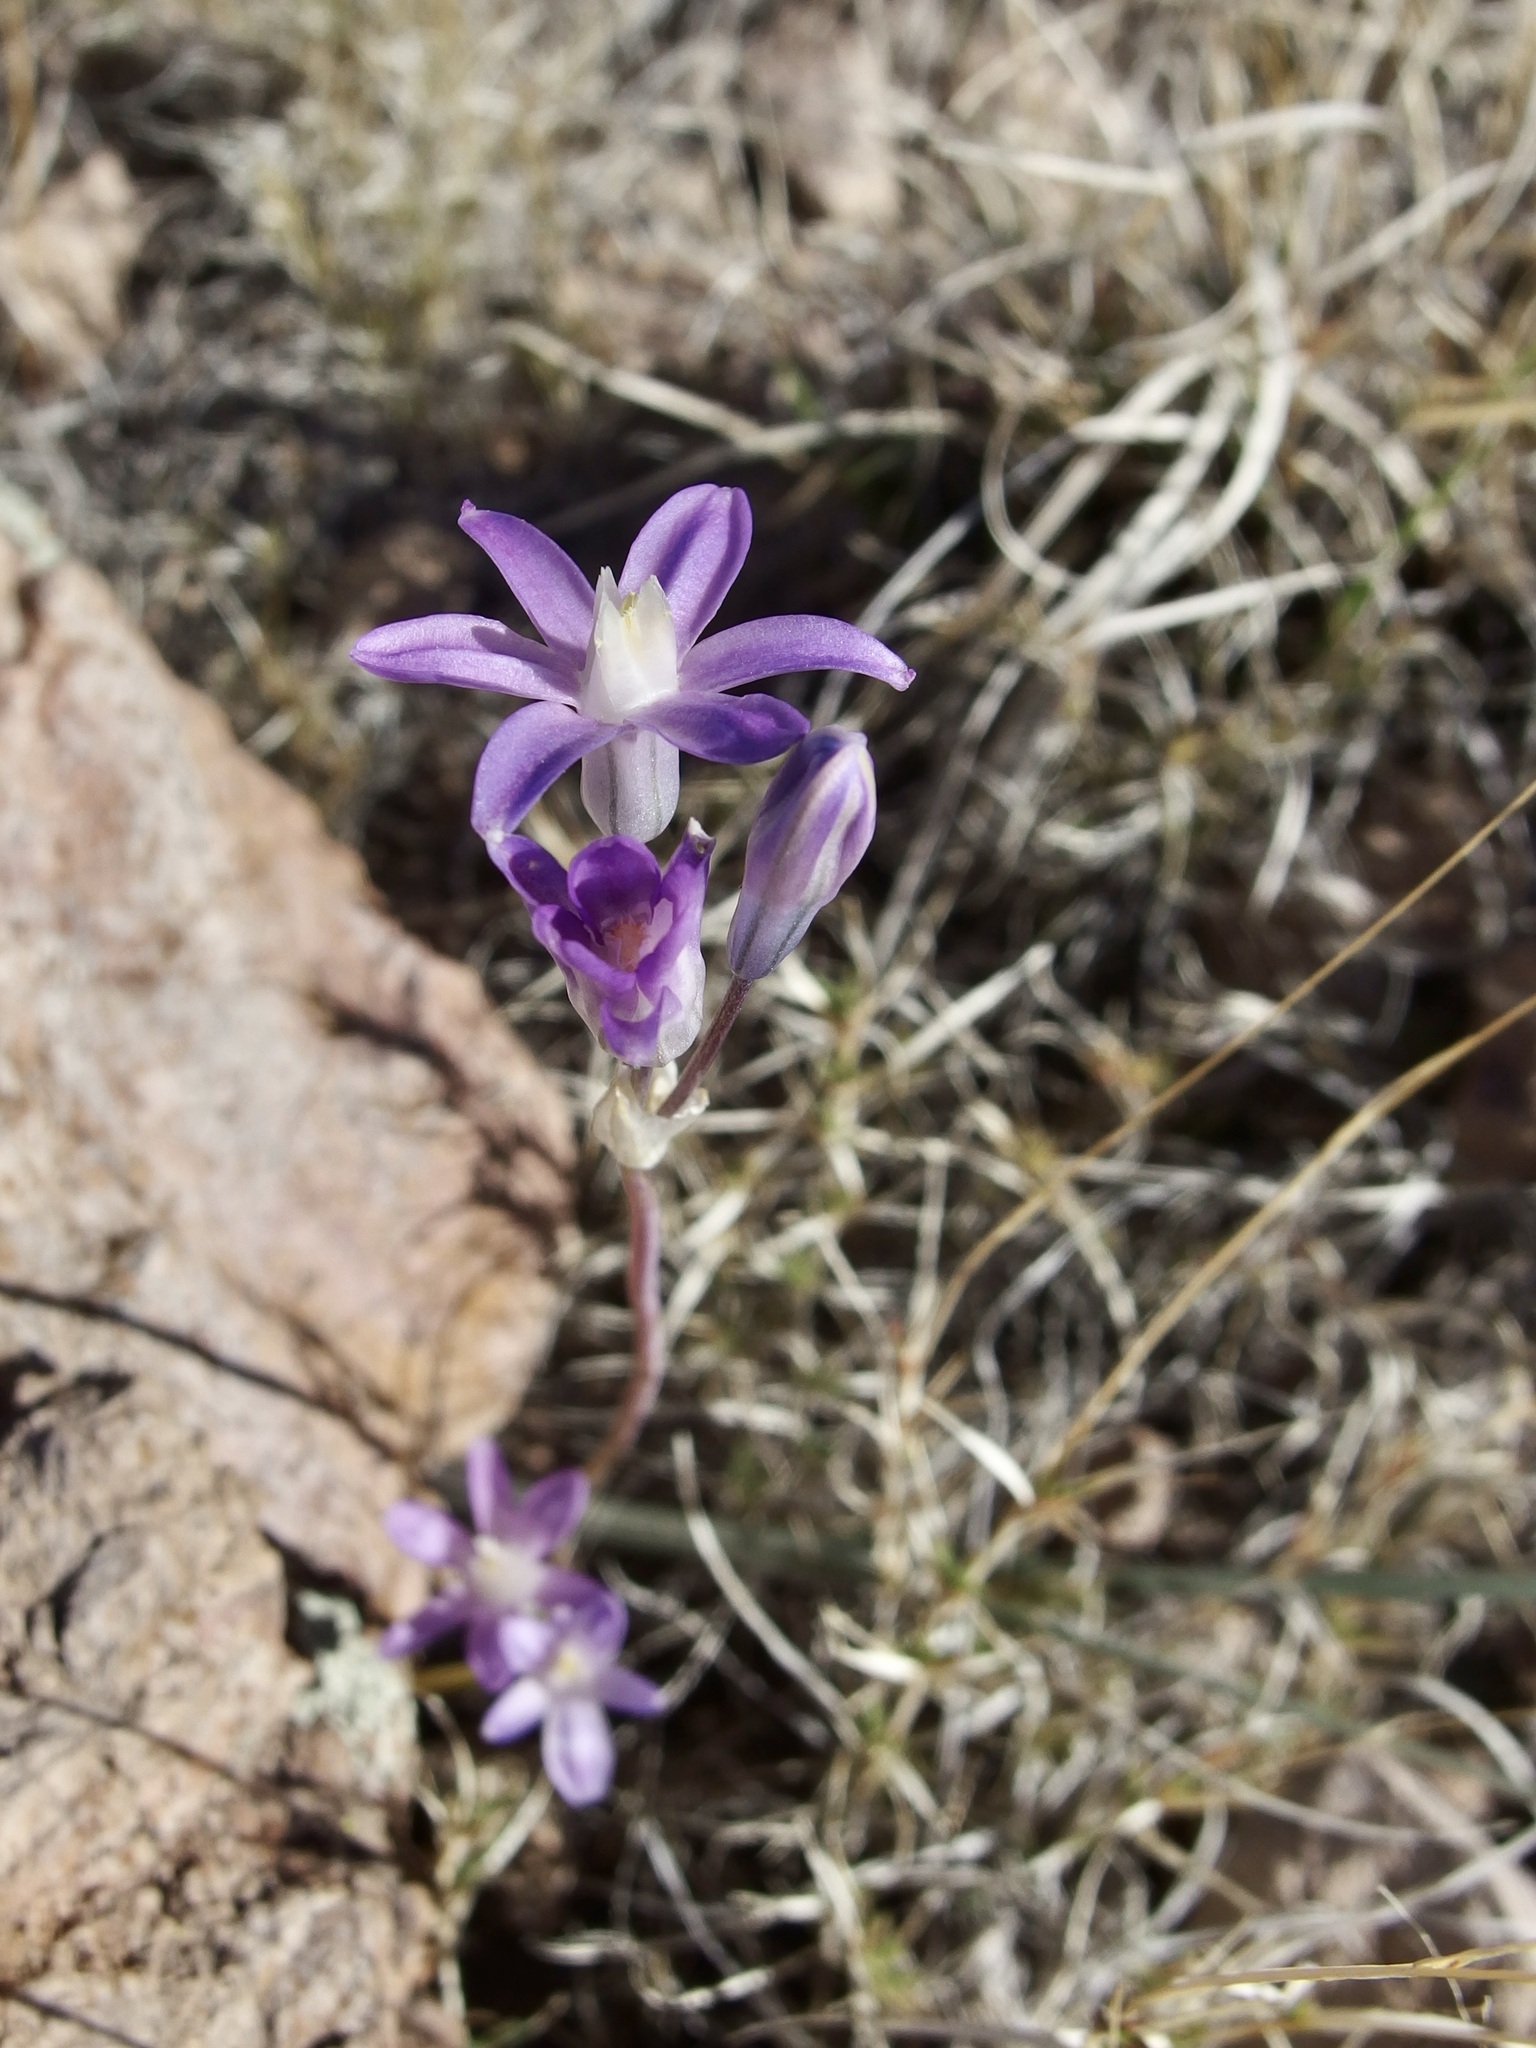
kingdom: Plantae
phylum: Tracheophyta
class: Liliopsida
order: Asparagales
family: Asparagaceae
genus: Dipterostemon
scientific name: Dipterostemon capitatus
